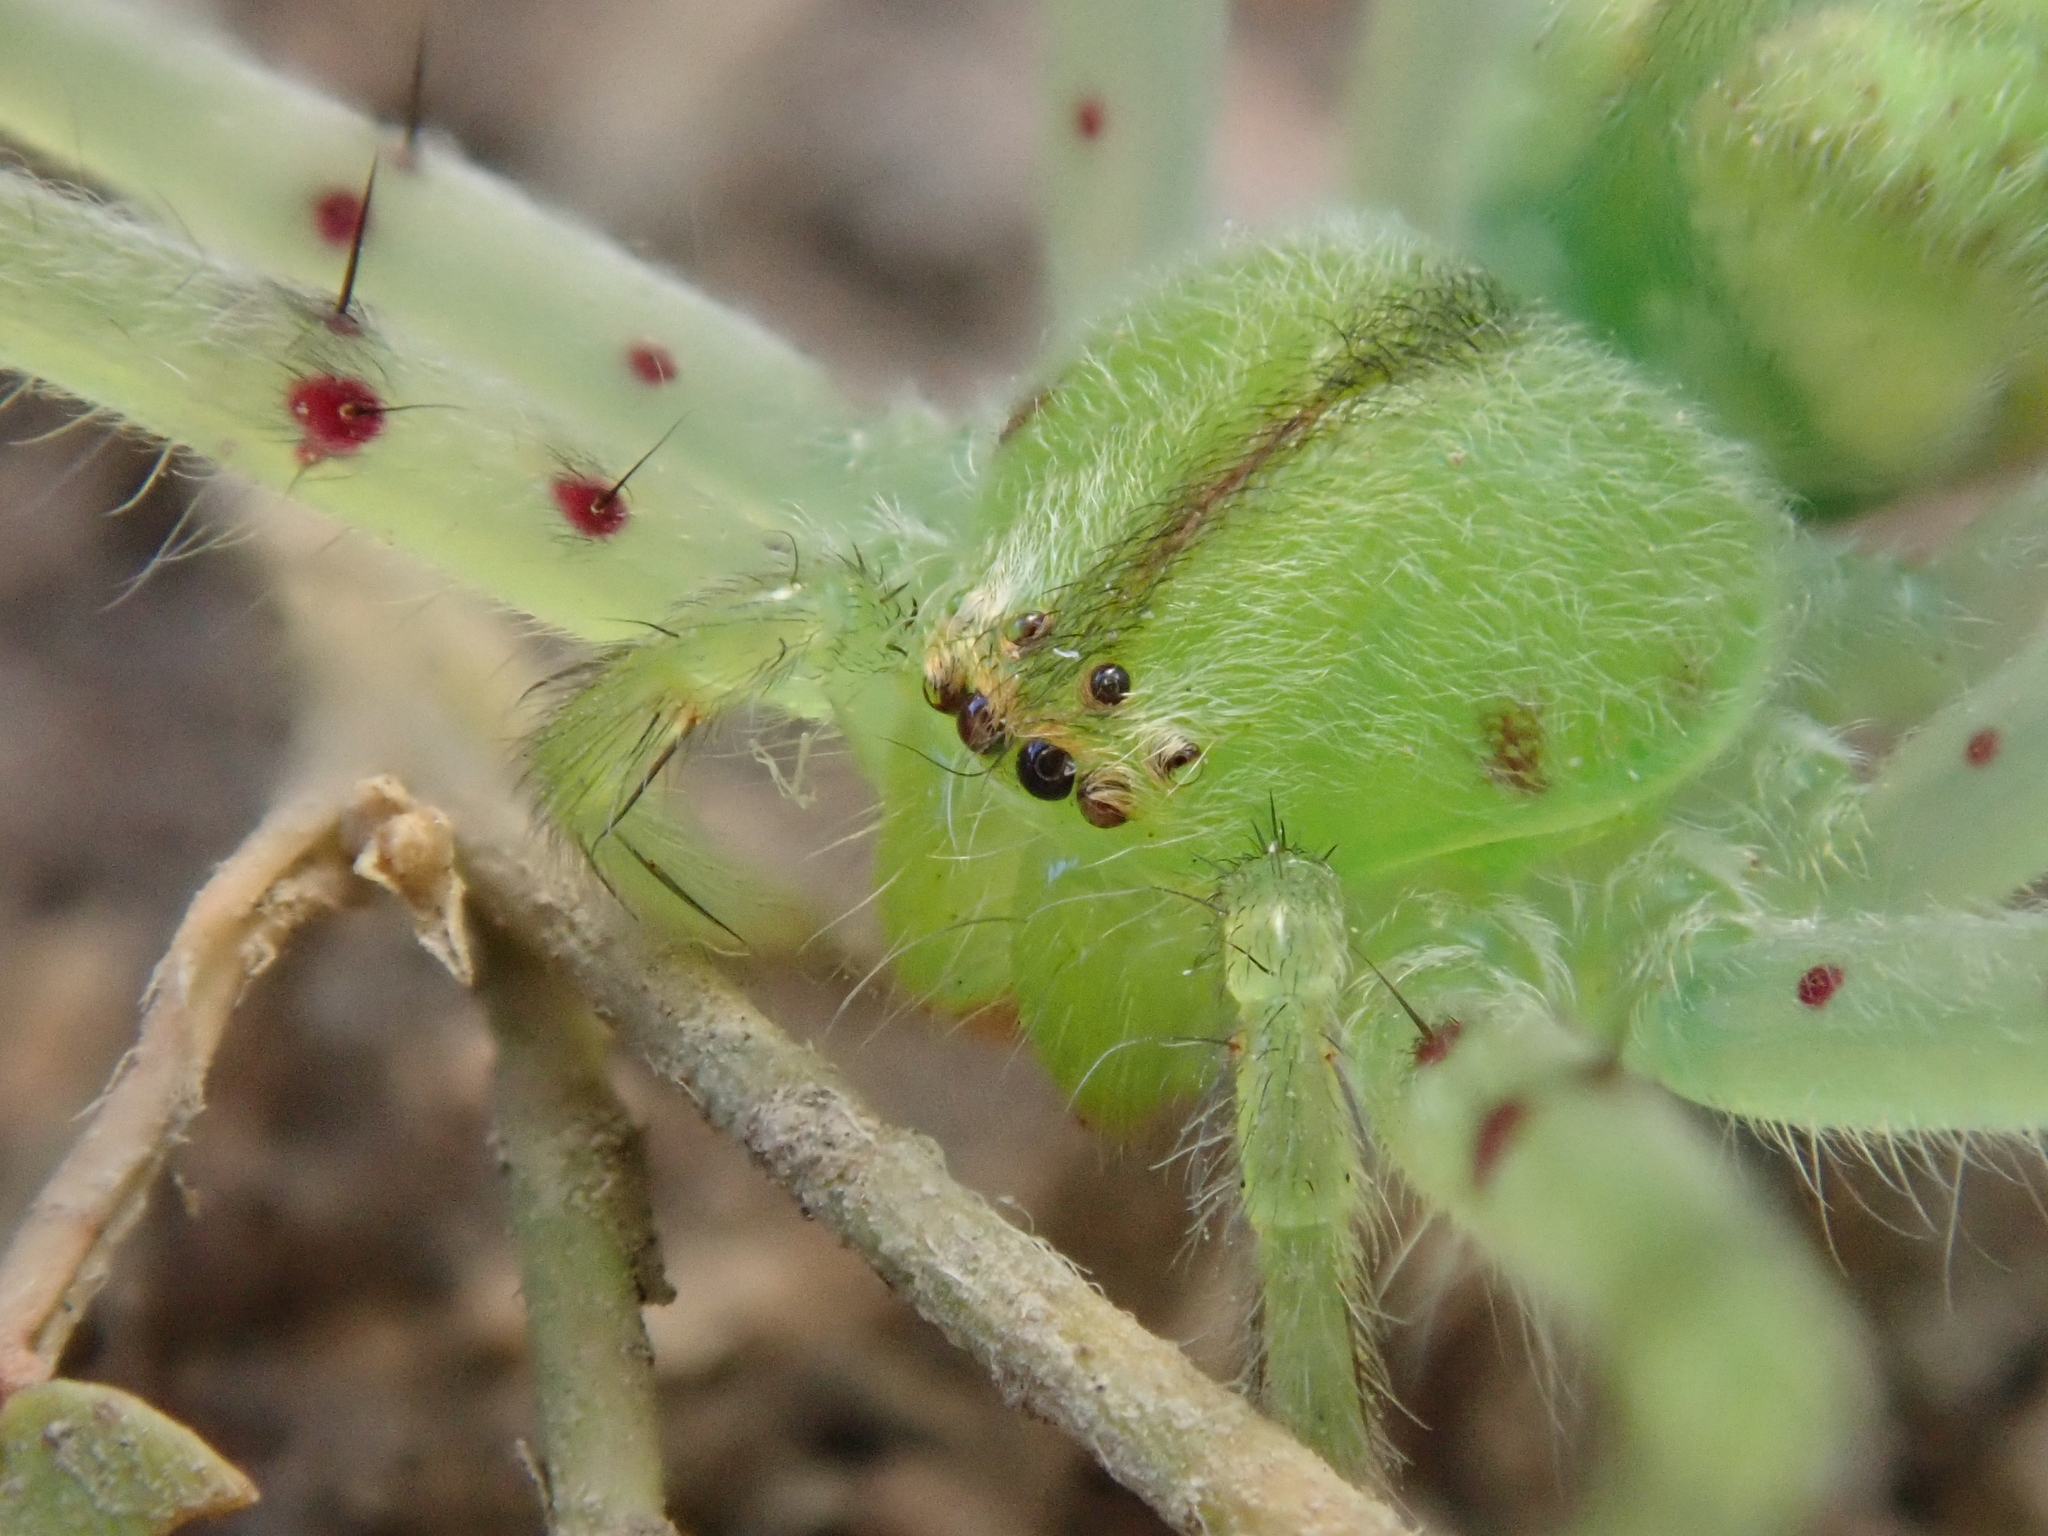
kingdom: Animalia
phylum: Arthropoda
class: Arachnida
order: Araneae
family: Sparassidae
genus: Macrinus
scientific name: Macrinus pollexensis
